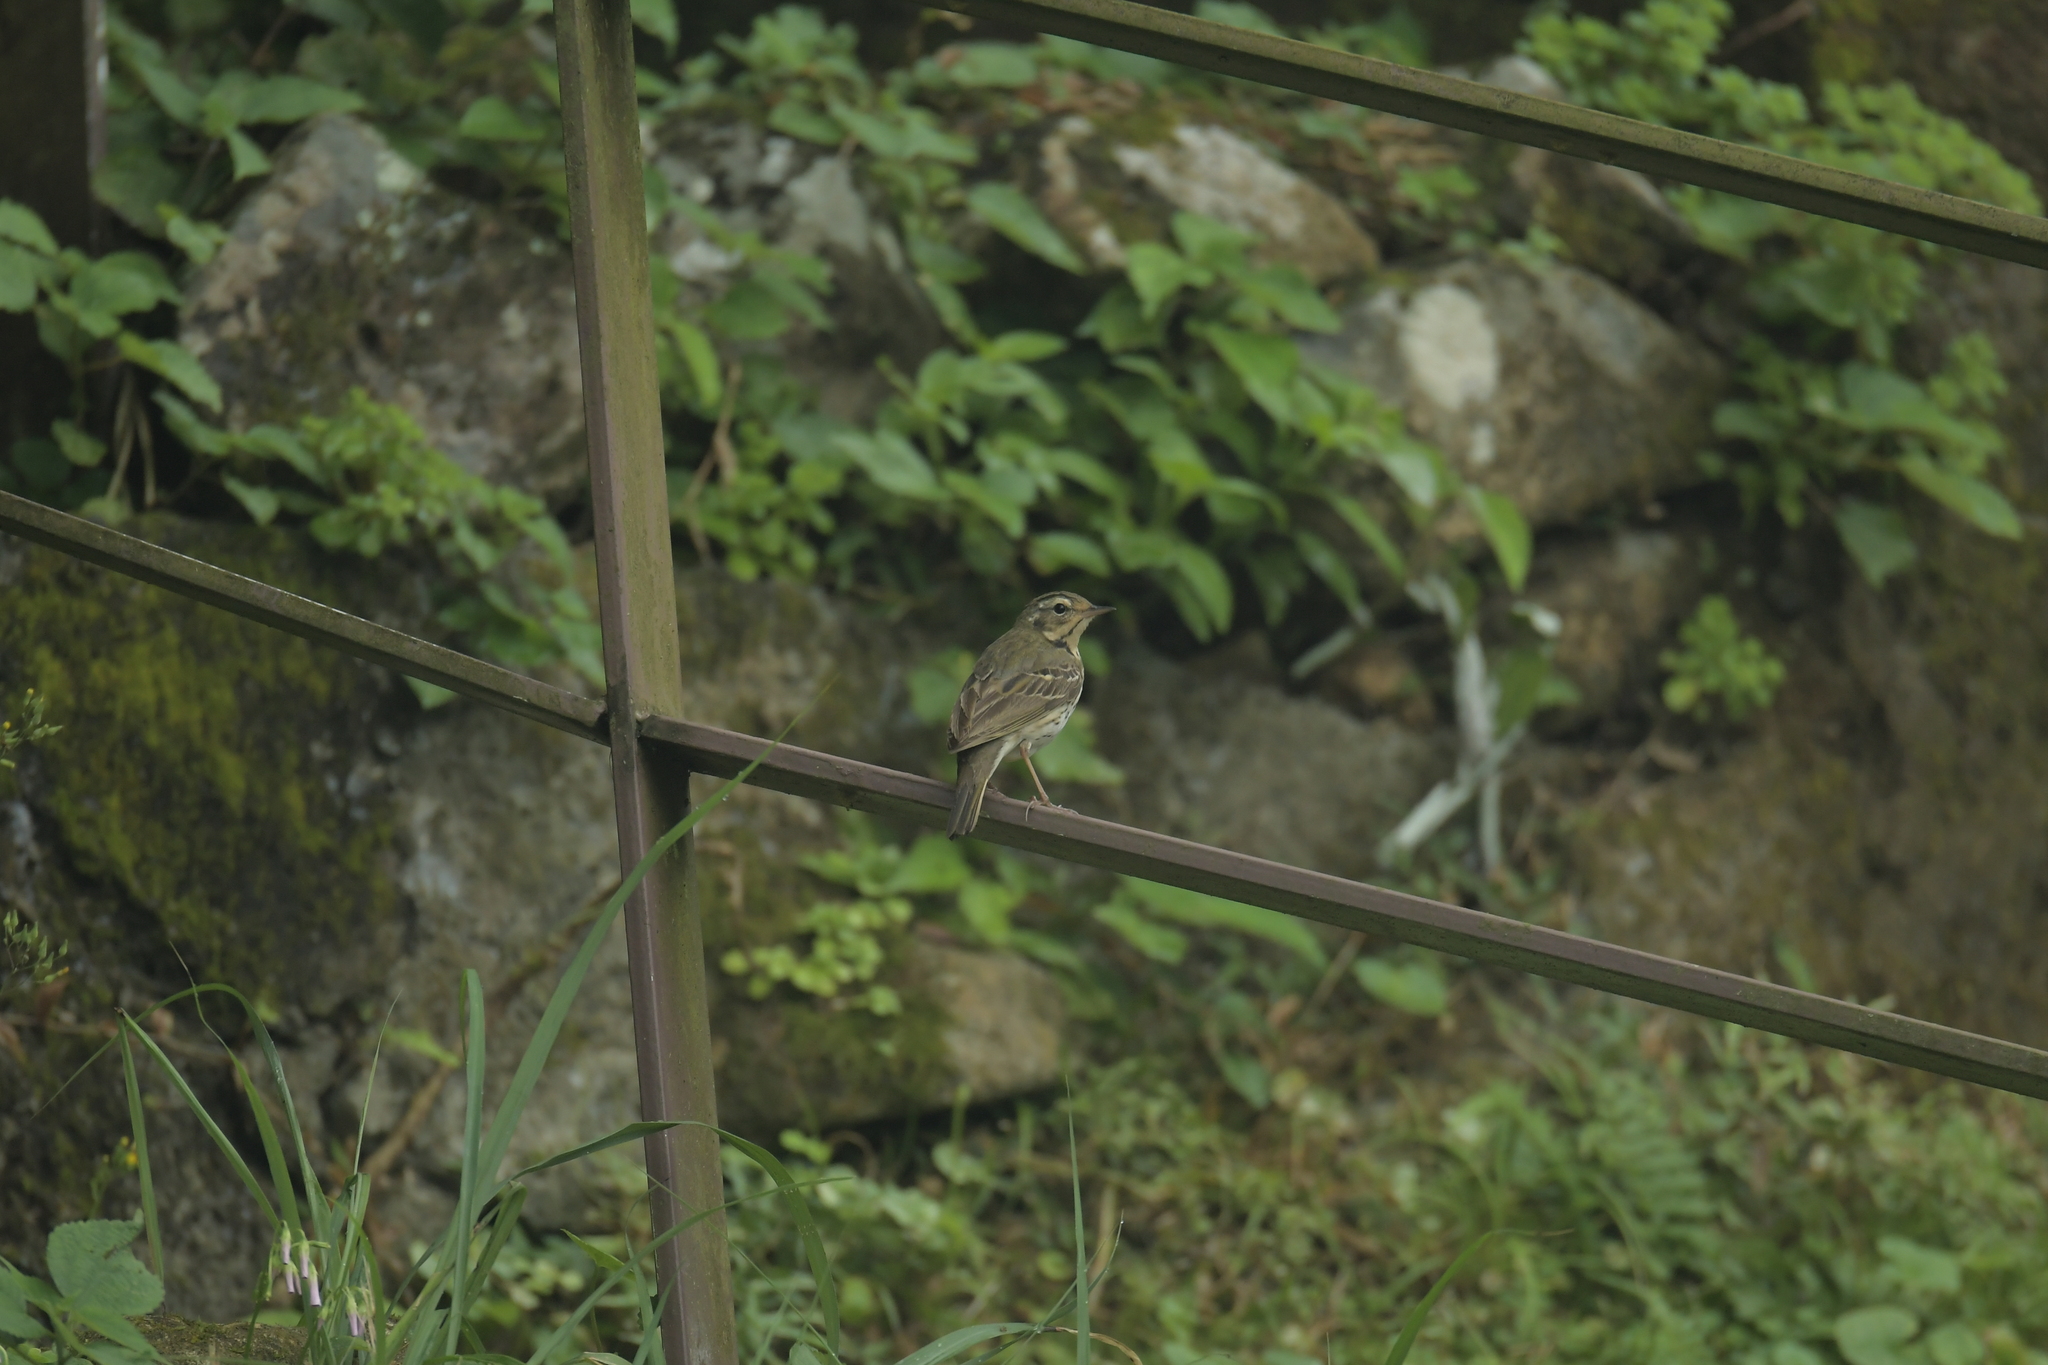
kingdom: Animalia
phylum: Chordata
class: Aves
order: Passeriformes
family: Motacillidae
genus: Anthus
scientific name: Anthus hodgsoni
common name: Olive-backed pipit
